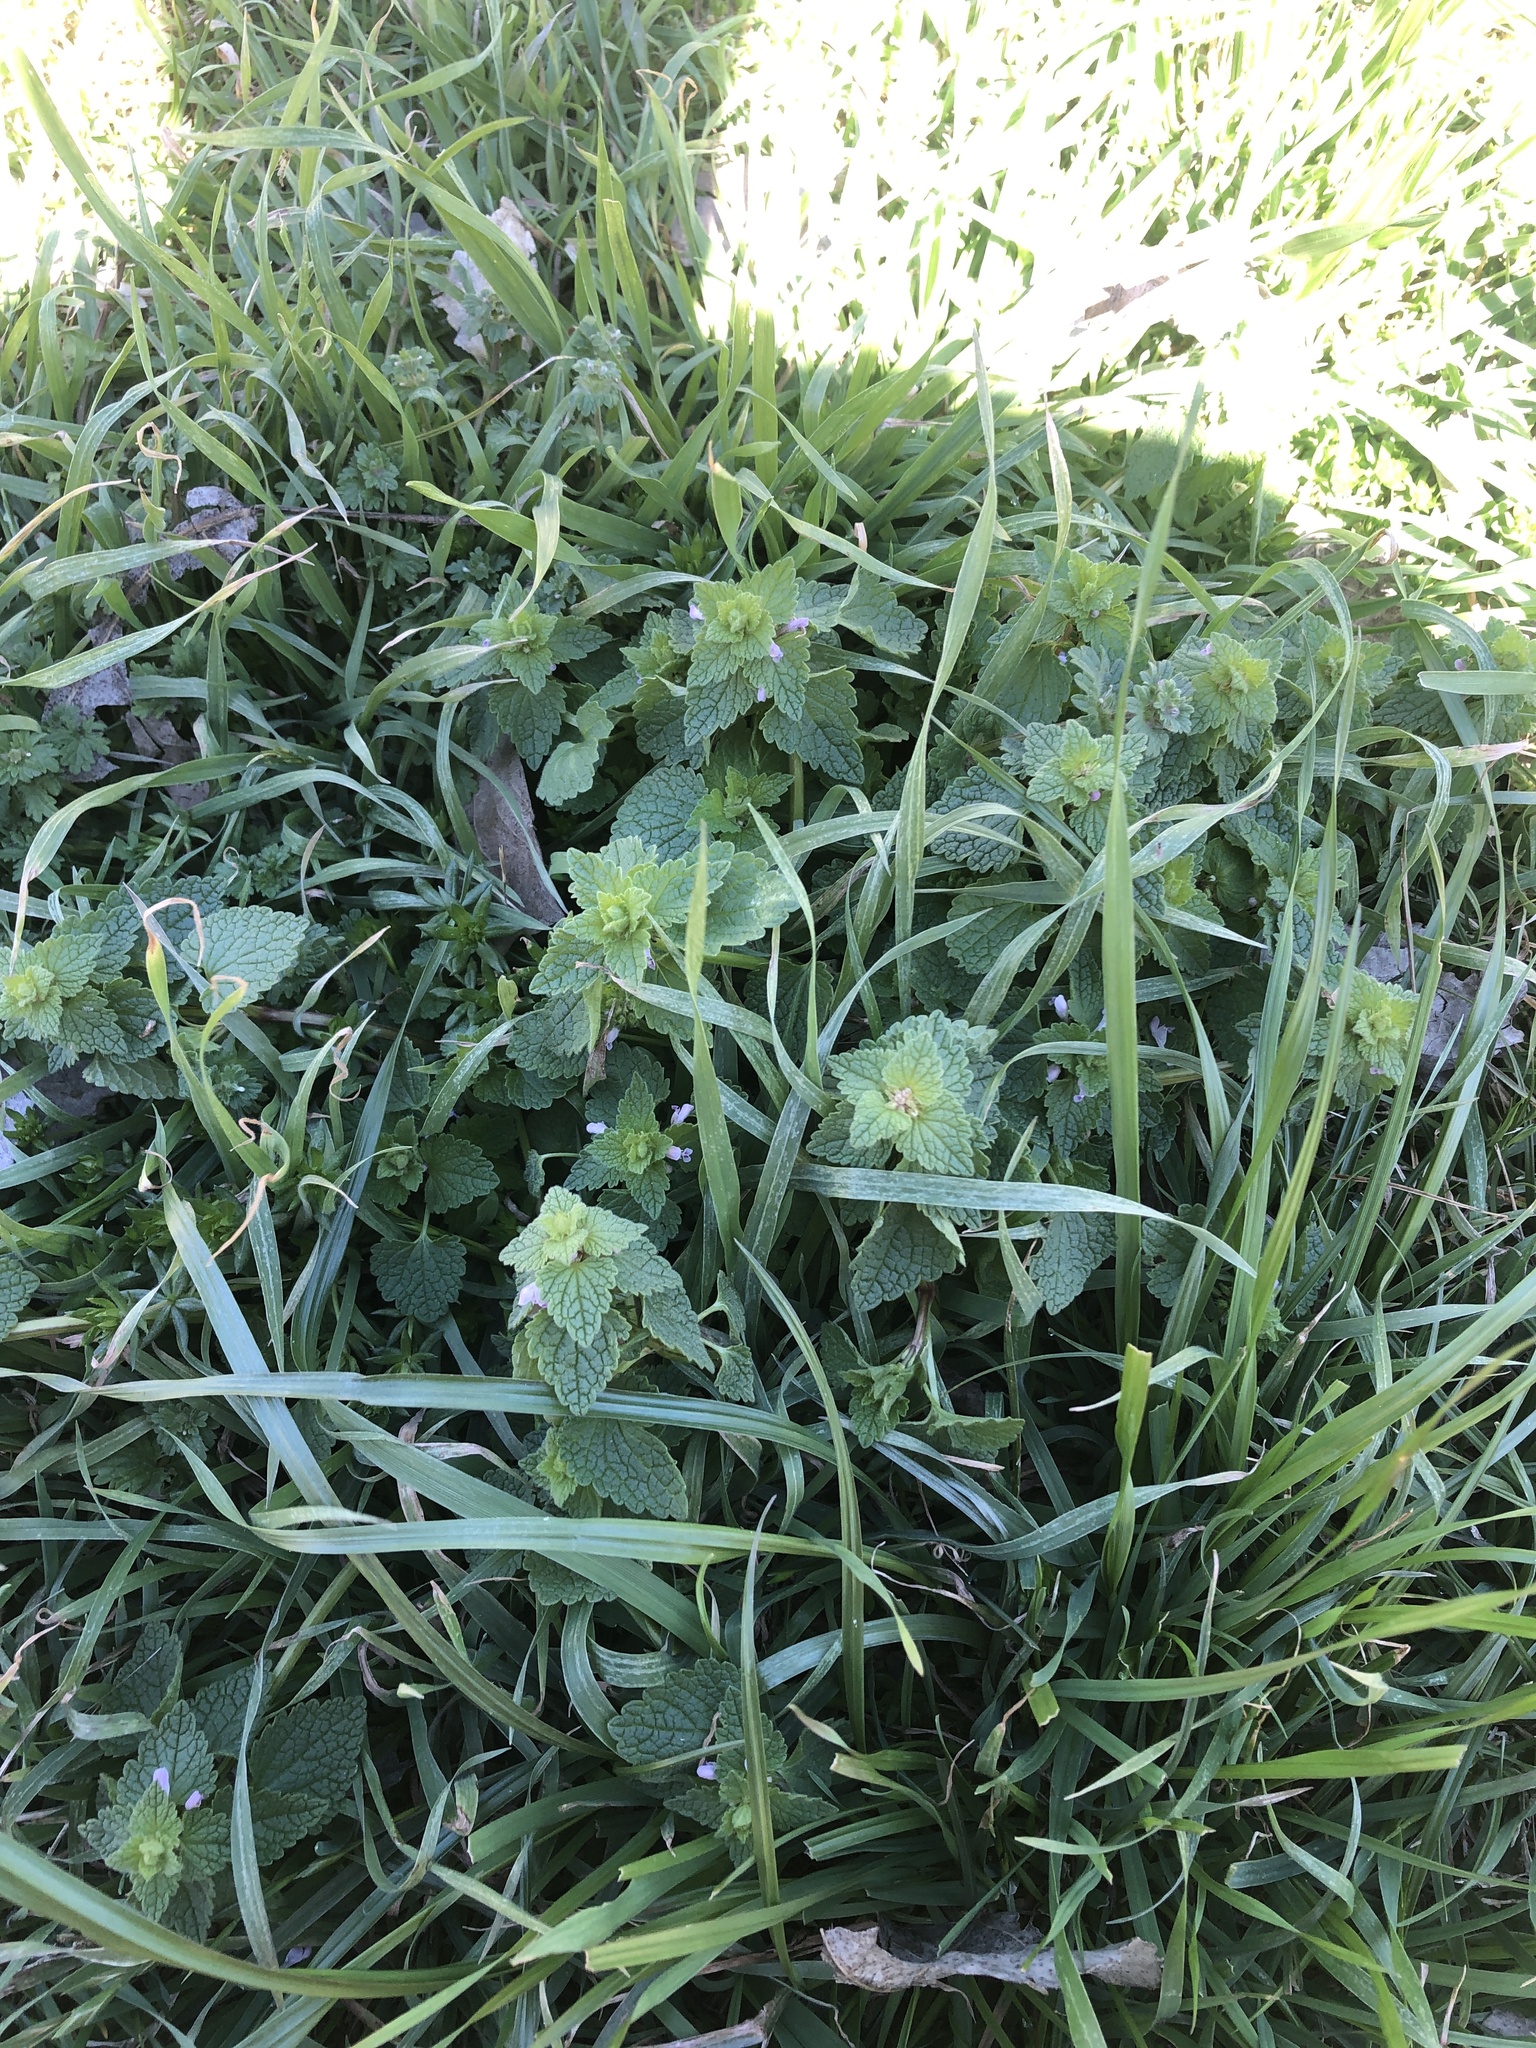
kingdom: Plantae
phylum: Tracheophyta
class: Magnoliopsida
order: Lamiales
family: Lamiaceae
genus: Lamium
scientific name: Lamium purpureum
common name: Red dead-nettle
